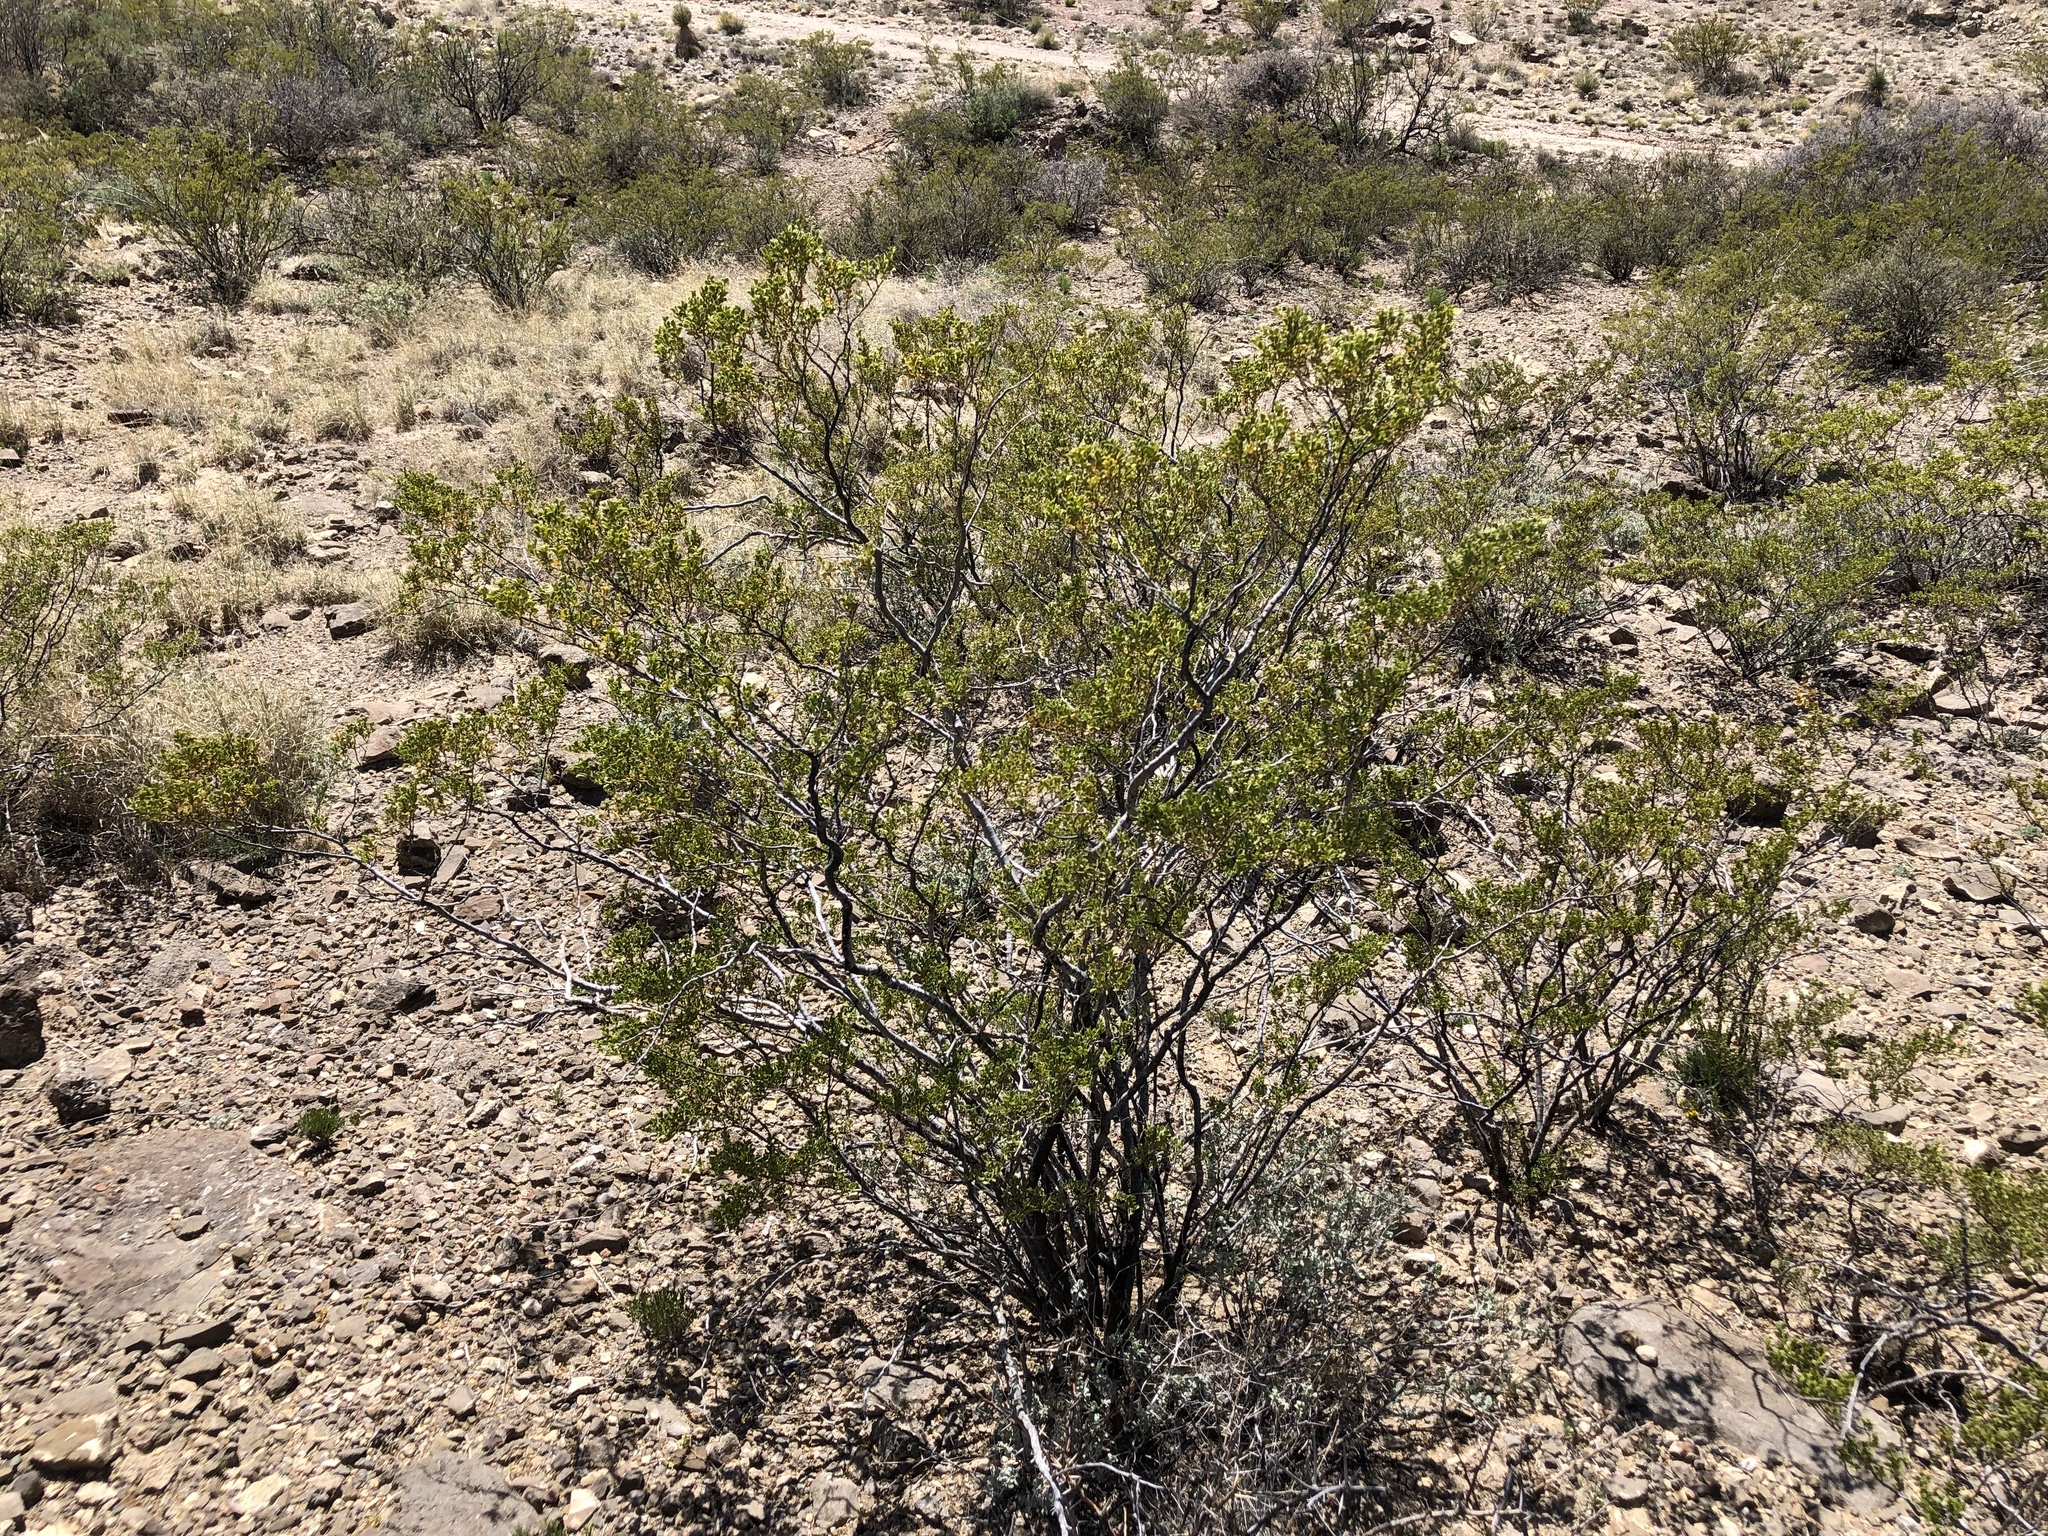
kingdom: Plantae
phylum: Tracheophyta
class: Magnoliopsida
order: Zygophyllales
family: Zygophyllaceae
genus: Larrea
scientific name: Larrea tridentata
